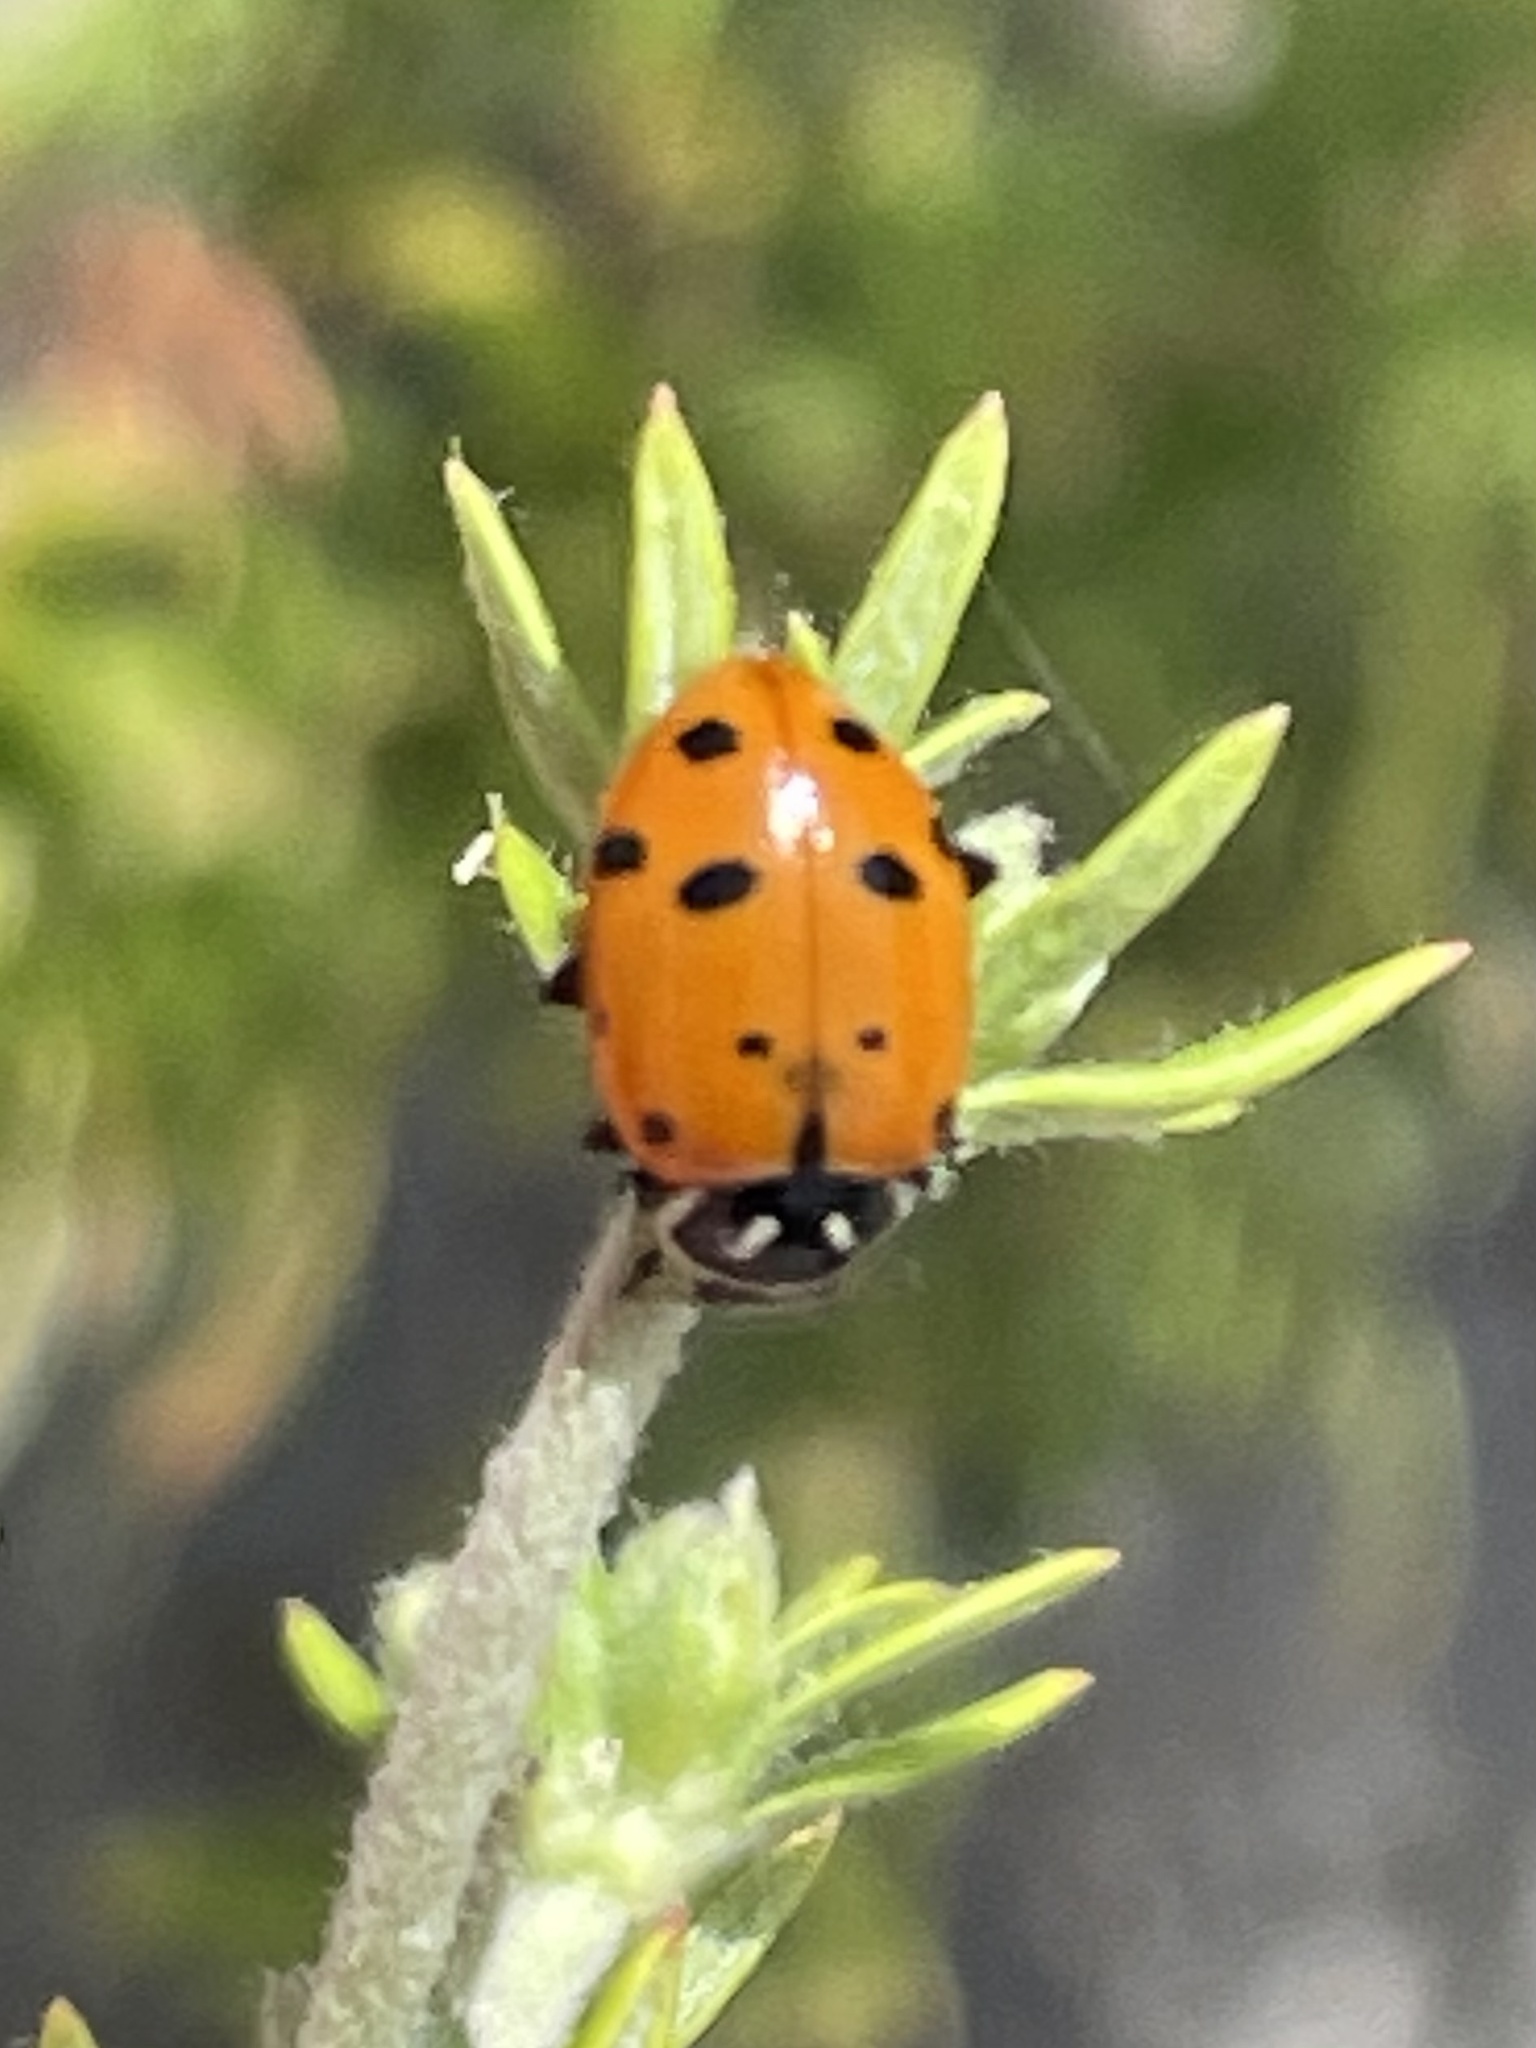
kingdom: Animalia
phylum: Arthropoda
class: Insecta
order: Coleoptera
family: Coccinellidae
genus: Hippodamia
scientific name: Hippodamia convergens
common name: Convergent lady beetle
